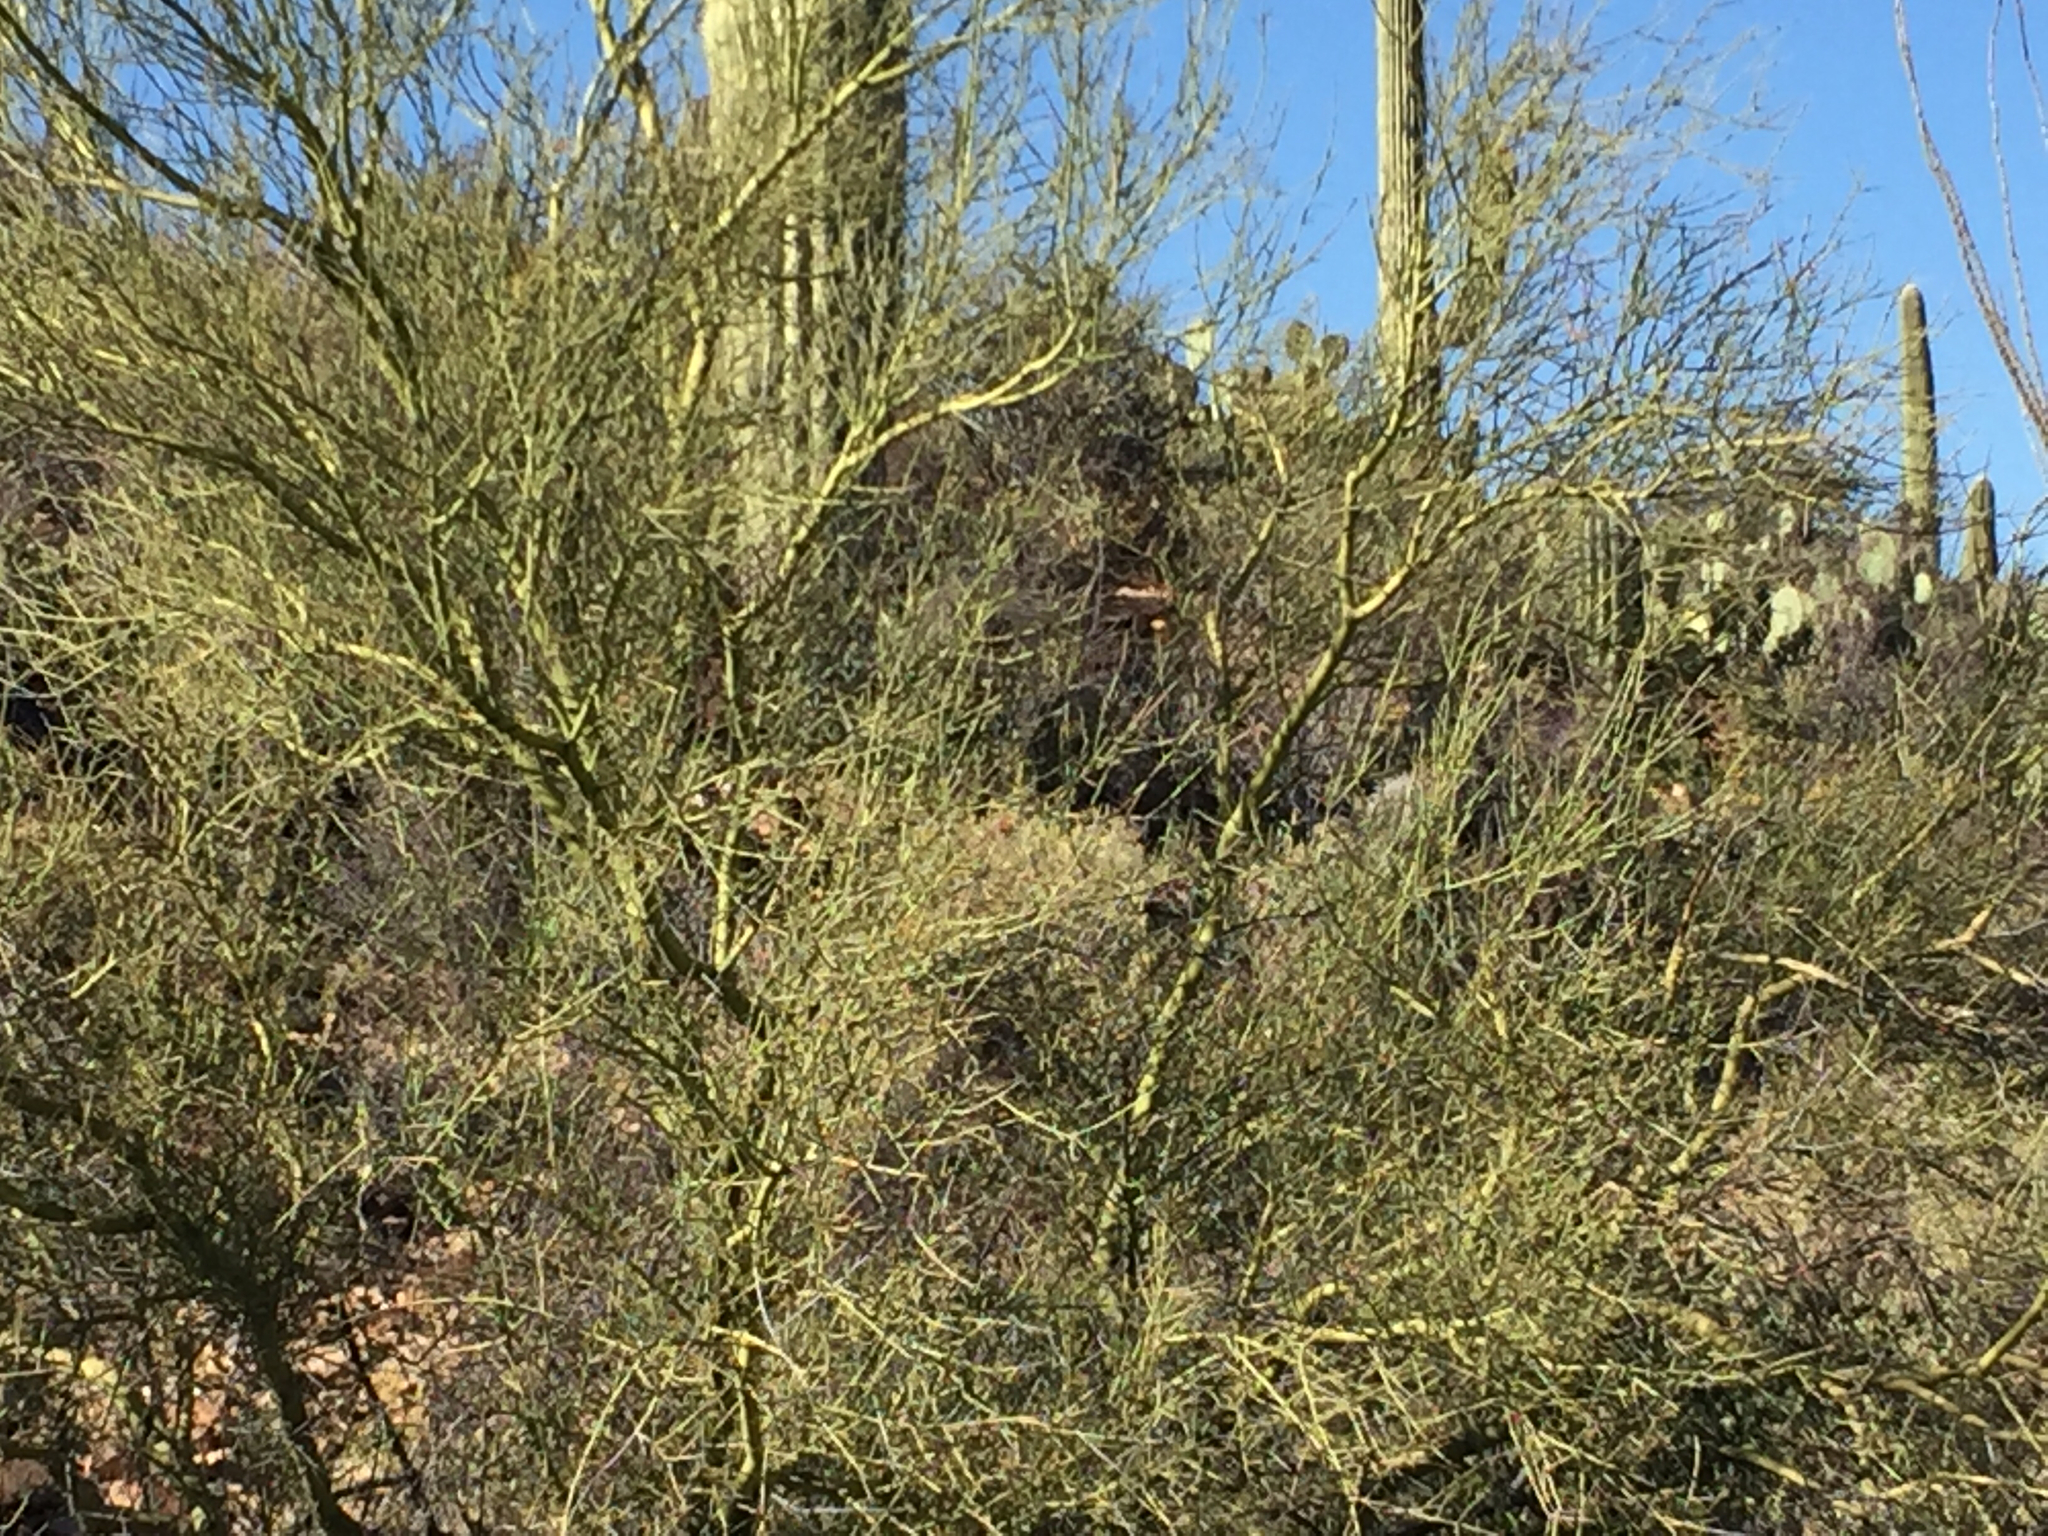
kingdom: Plantae
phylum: Tracheophyta
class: Magnoliopsida
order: Fabales
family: Fabaceae
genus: Parkinsonia
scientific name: Parkinsonia microphylla
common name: Yellow paloverde
